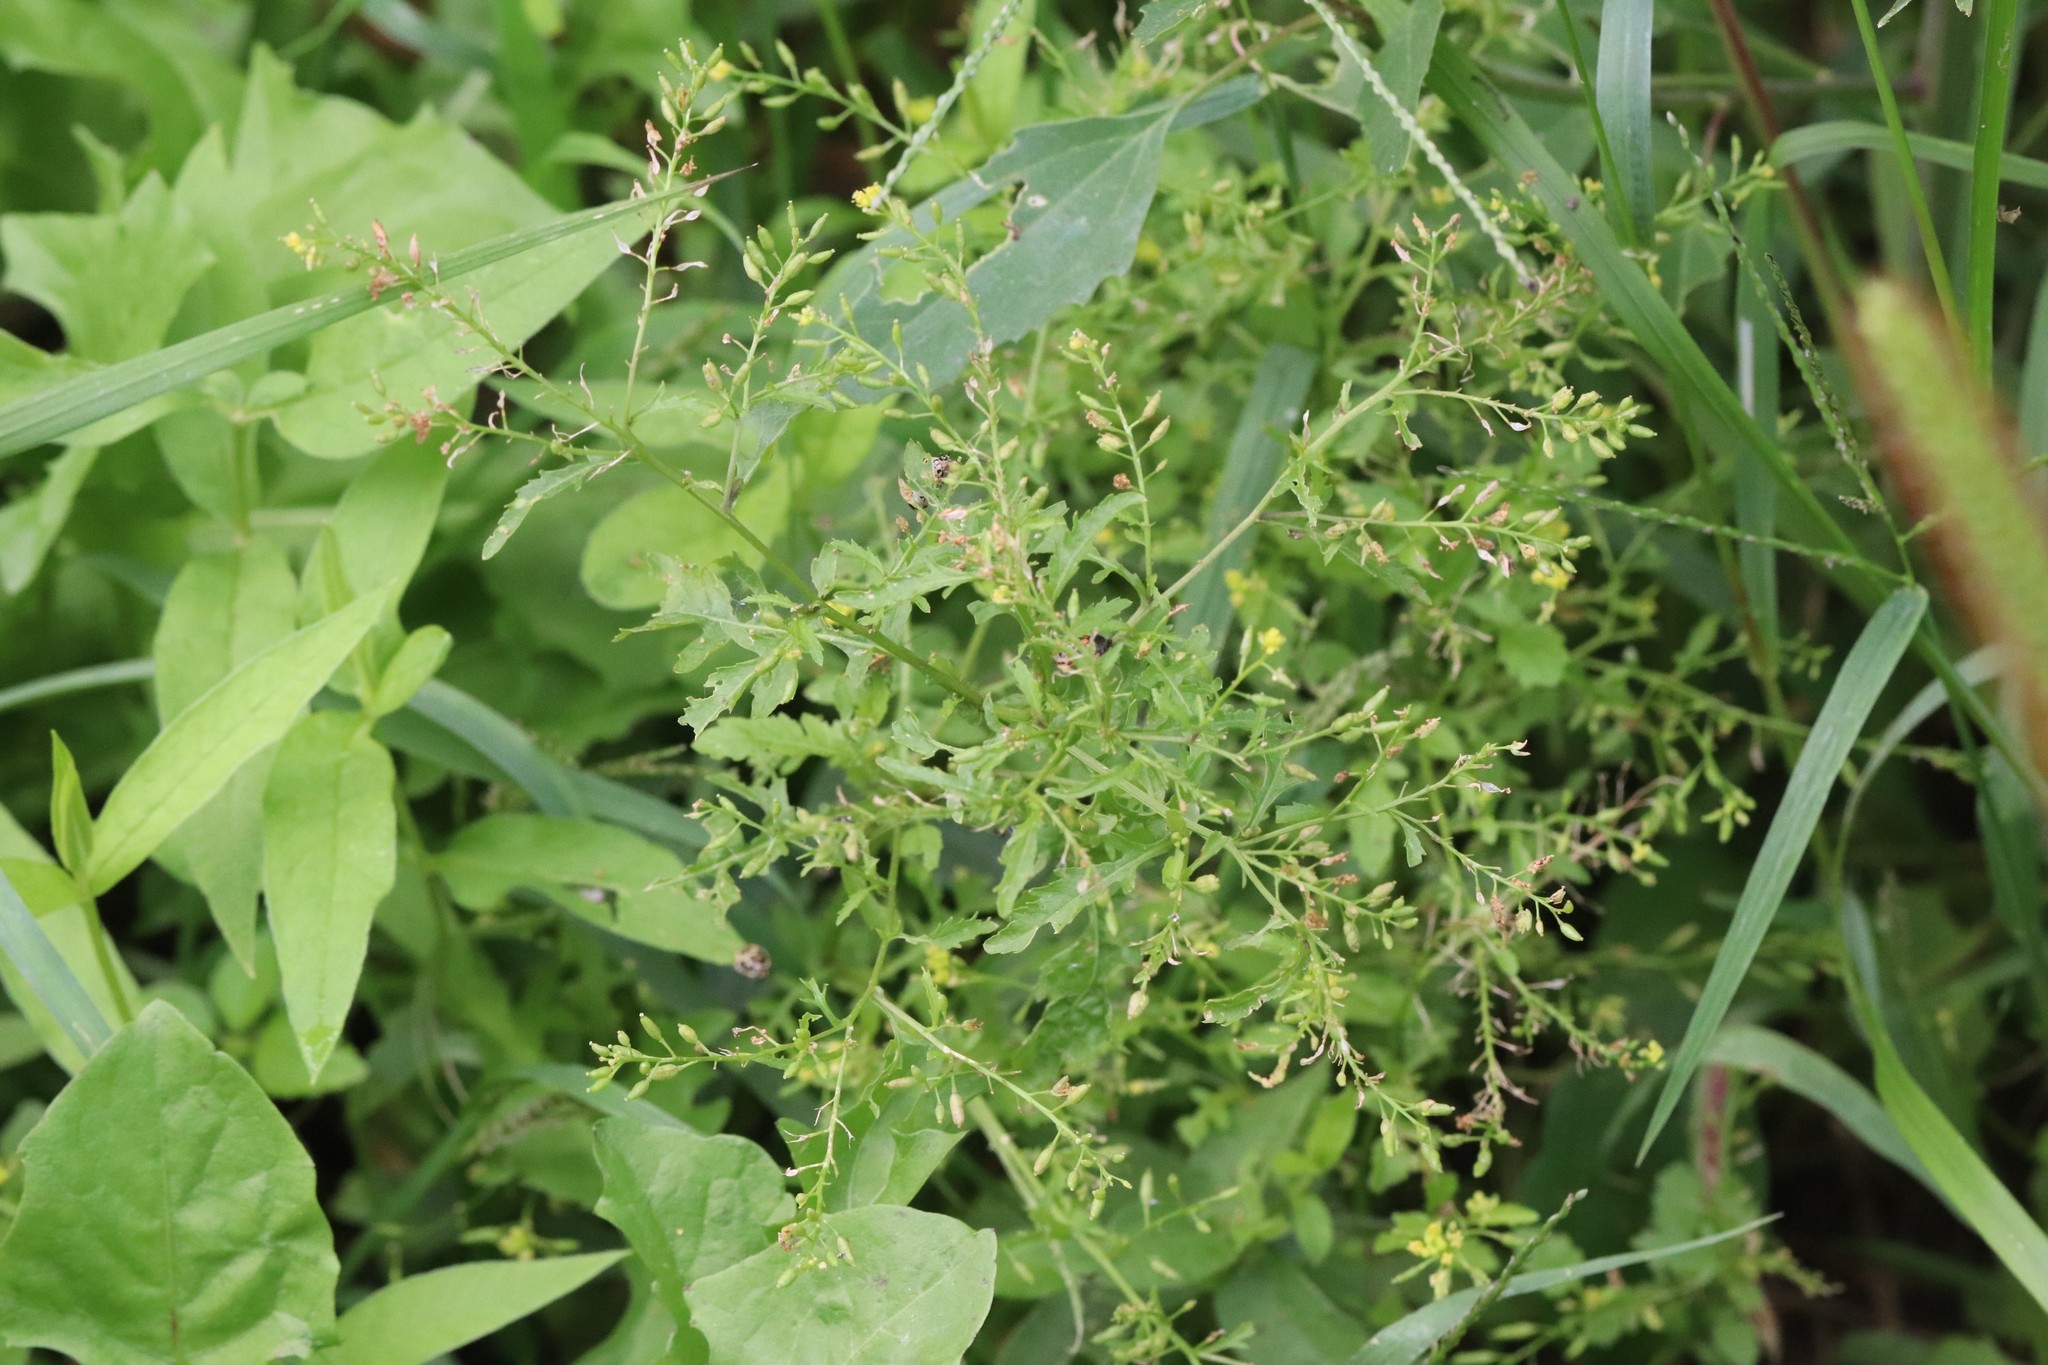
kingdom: Plantae
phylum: Tracheophyta
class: Magnoliopsida
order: Brassicales
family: Brassicaceae
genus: Rorippa
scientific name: Rorippa palustris
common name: Marsh yellow-cress
